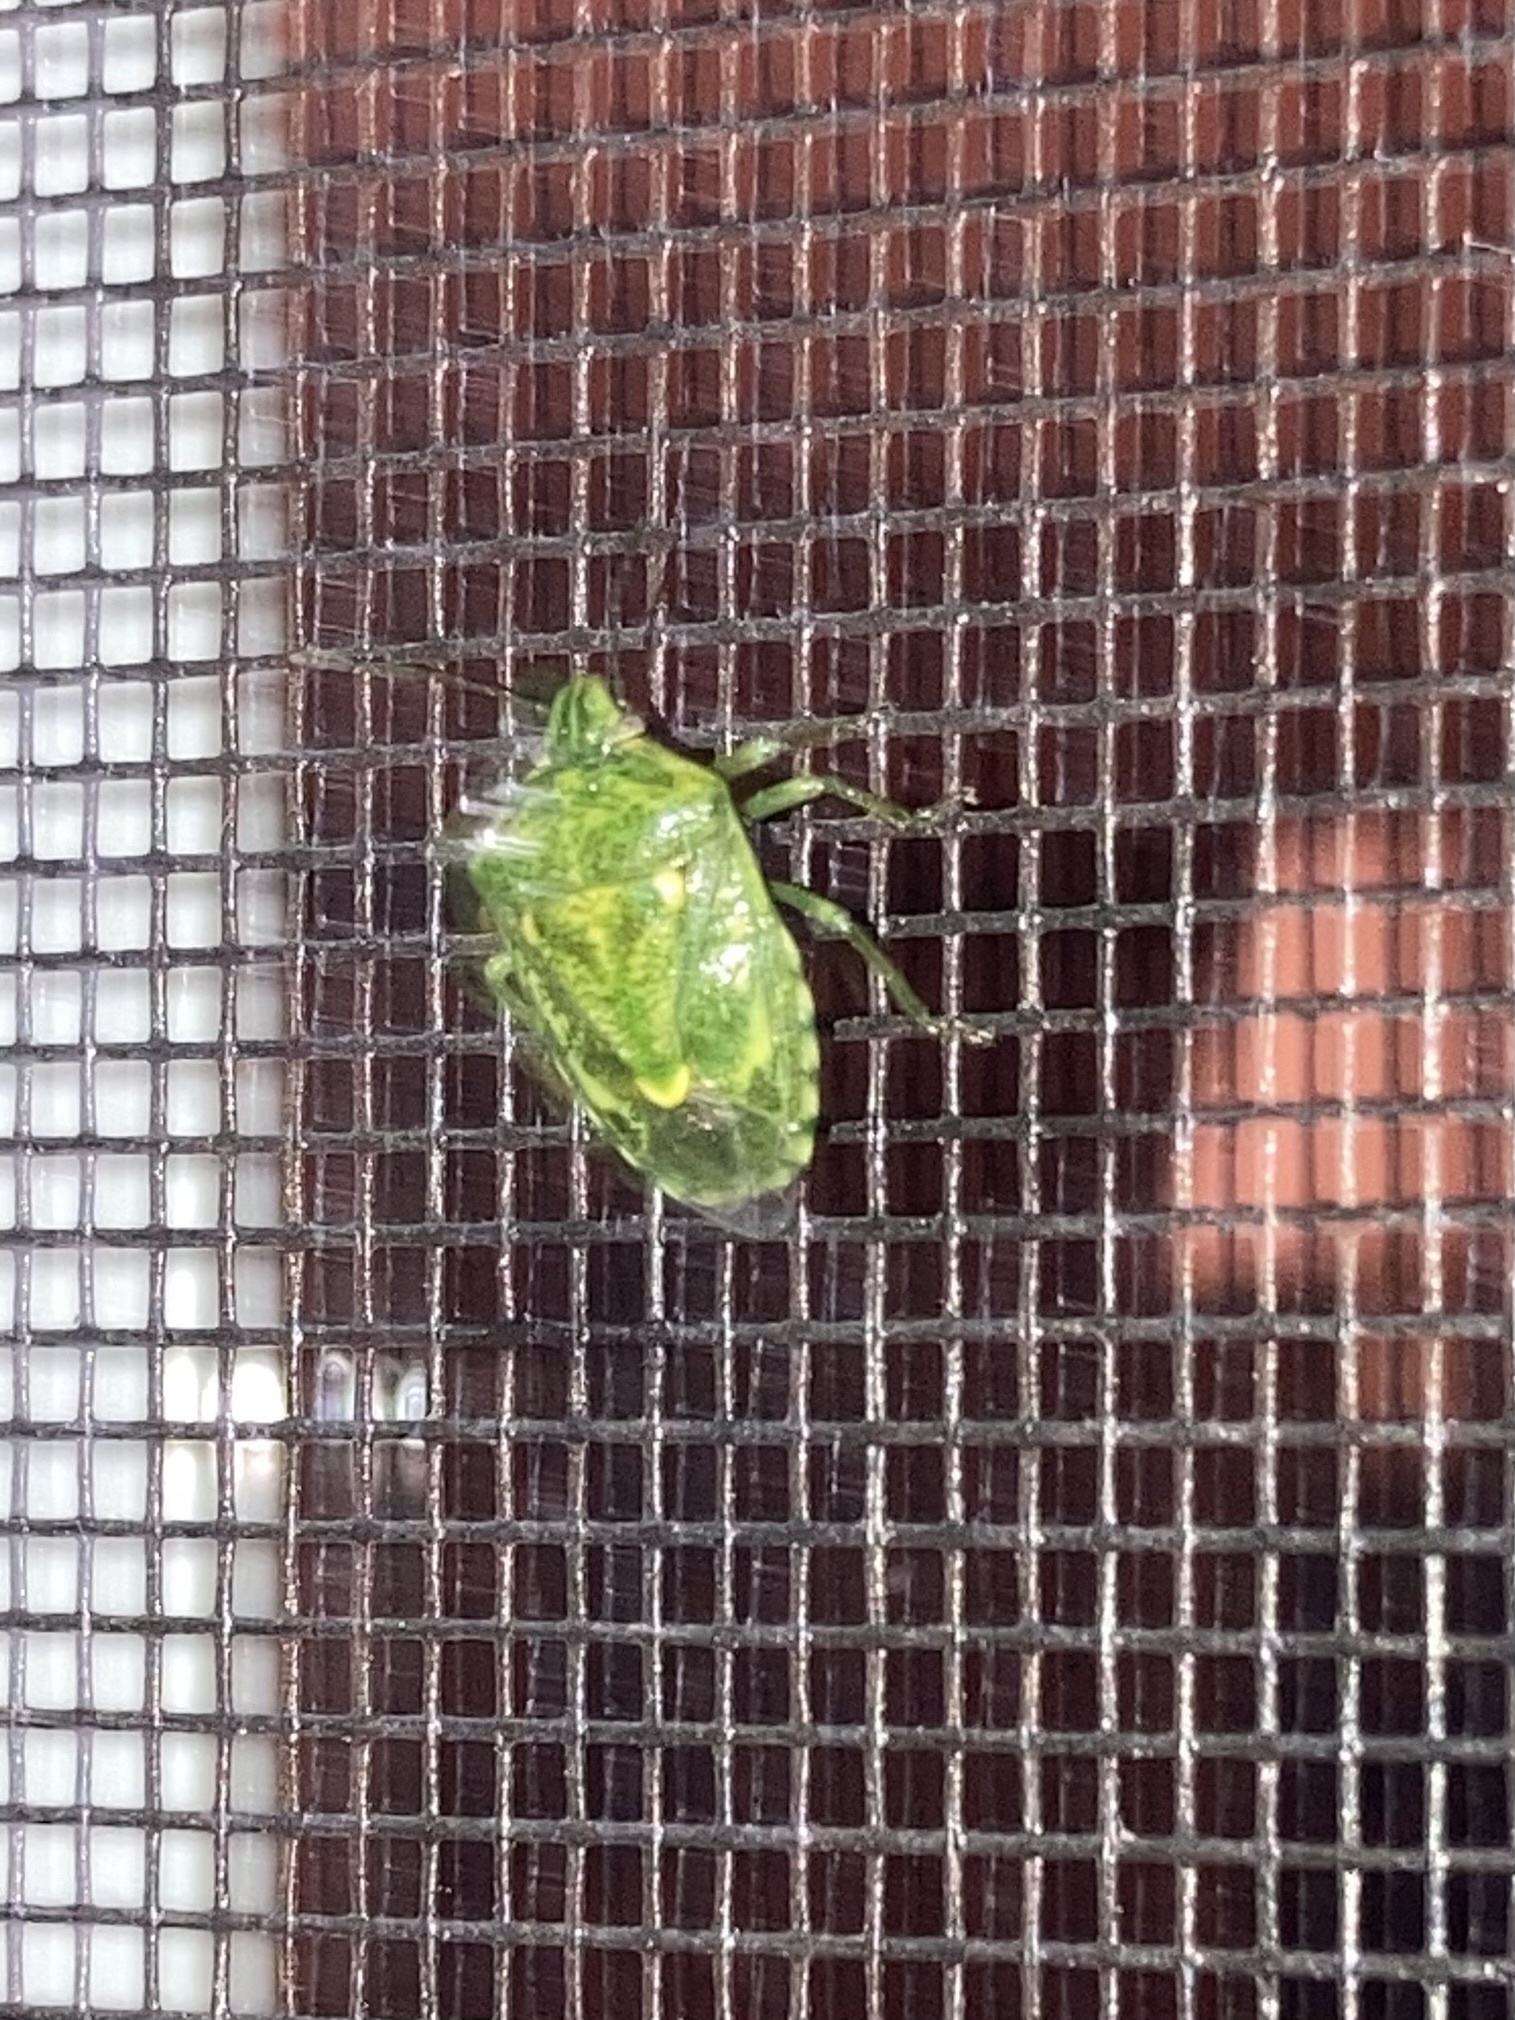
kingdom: Animalia
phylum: Arthropoda
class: Insecta
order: Hemiptera
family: Pentatomidae
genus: Banasa
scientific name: Banasa euchlora
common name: Cedar berry bug
